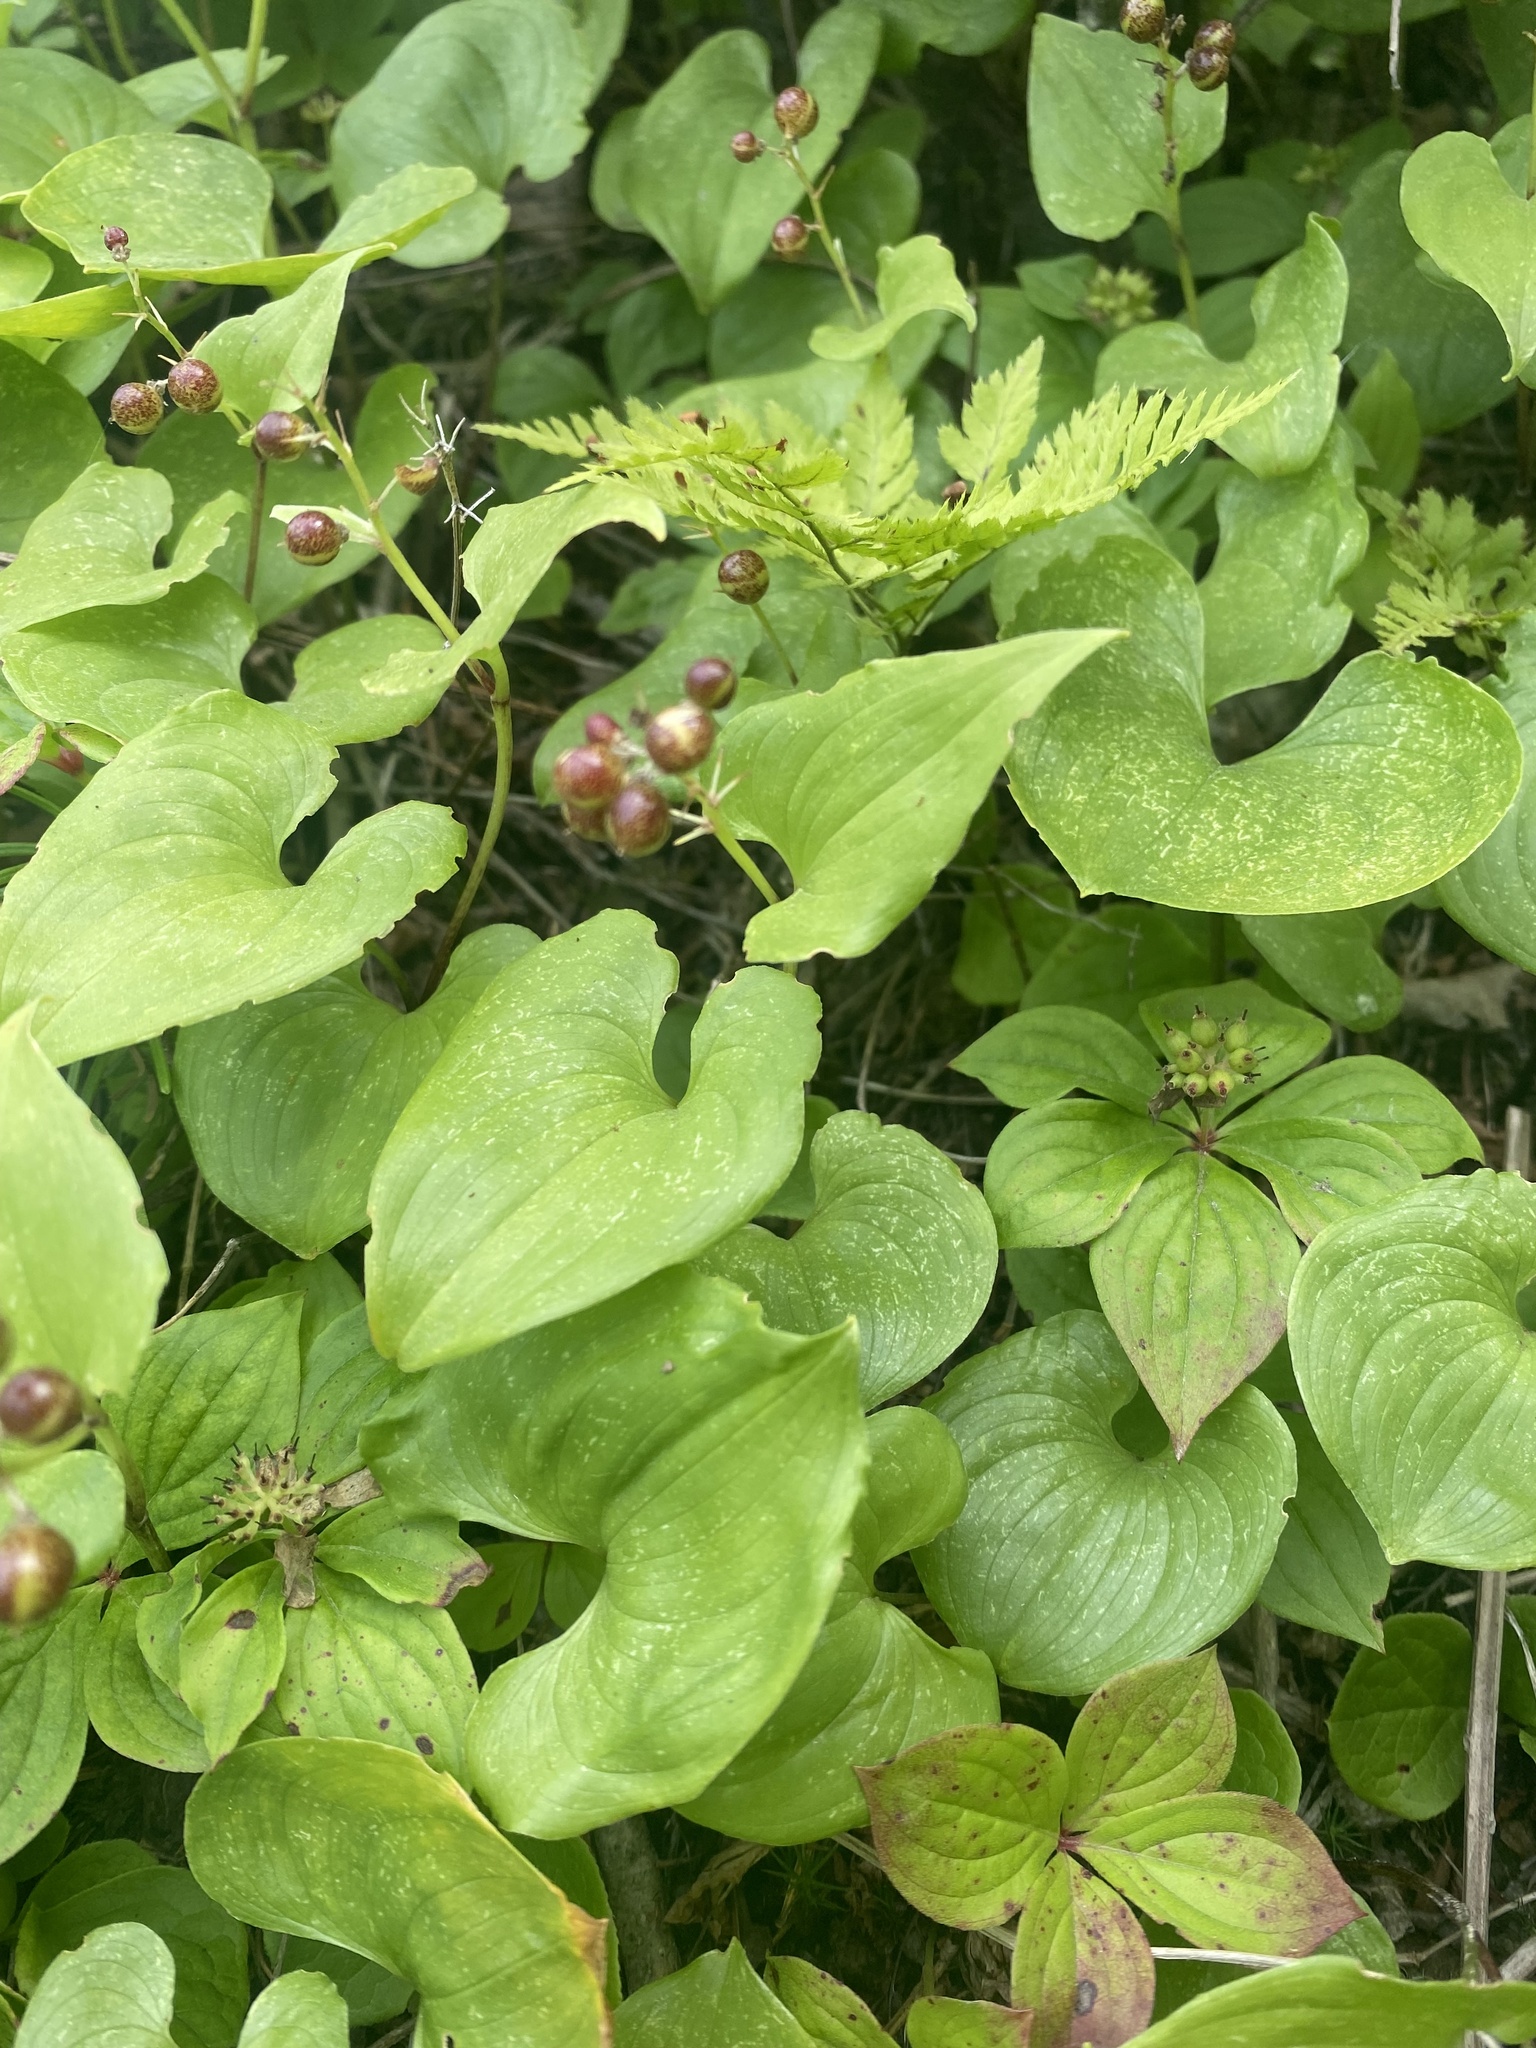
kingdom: Plantae
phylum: Tracheophyta
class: Liliopsida
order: Asparagales
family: Asparagaceae
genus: Maianthemum
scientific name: Maianthemum dilatatum
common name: False lily-of-the-valley
